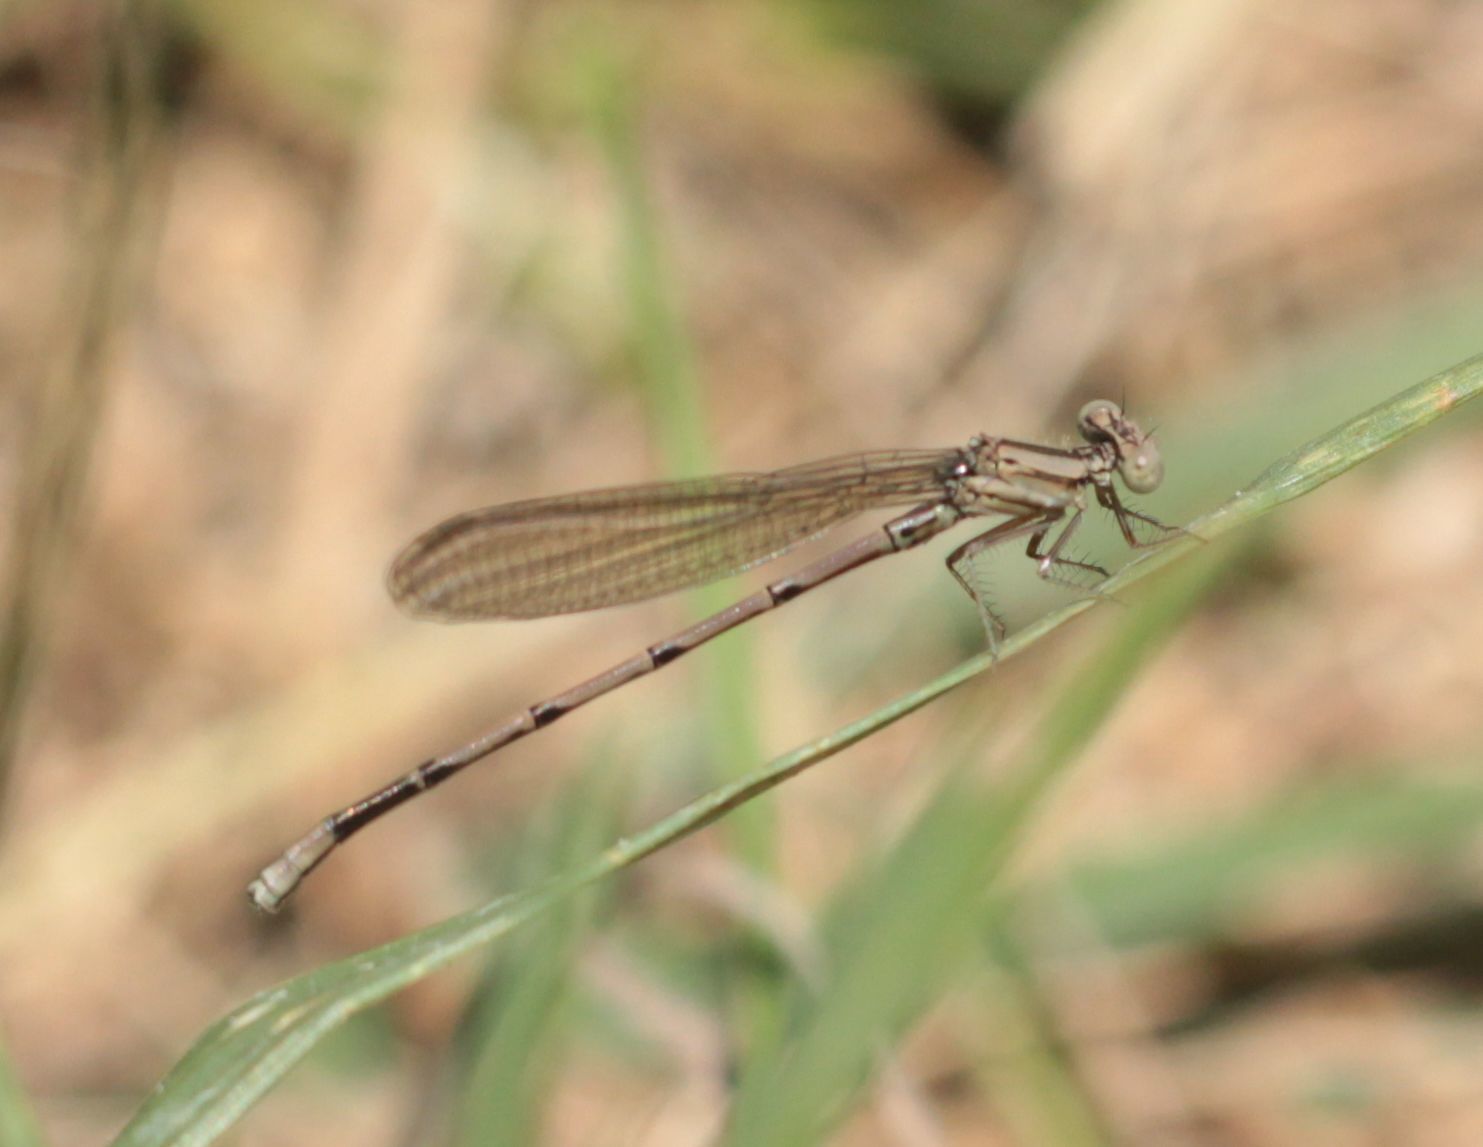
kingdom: Animalia
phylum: Arthropoda
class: Insecta
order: Odonata
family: Coenagrionidae
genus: Argia
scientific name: Argia fumipennis
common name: Variable dancer
